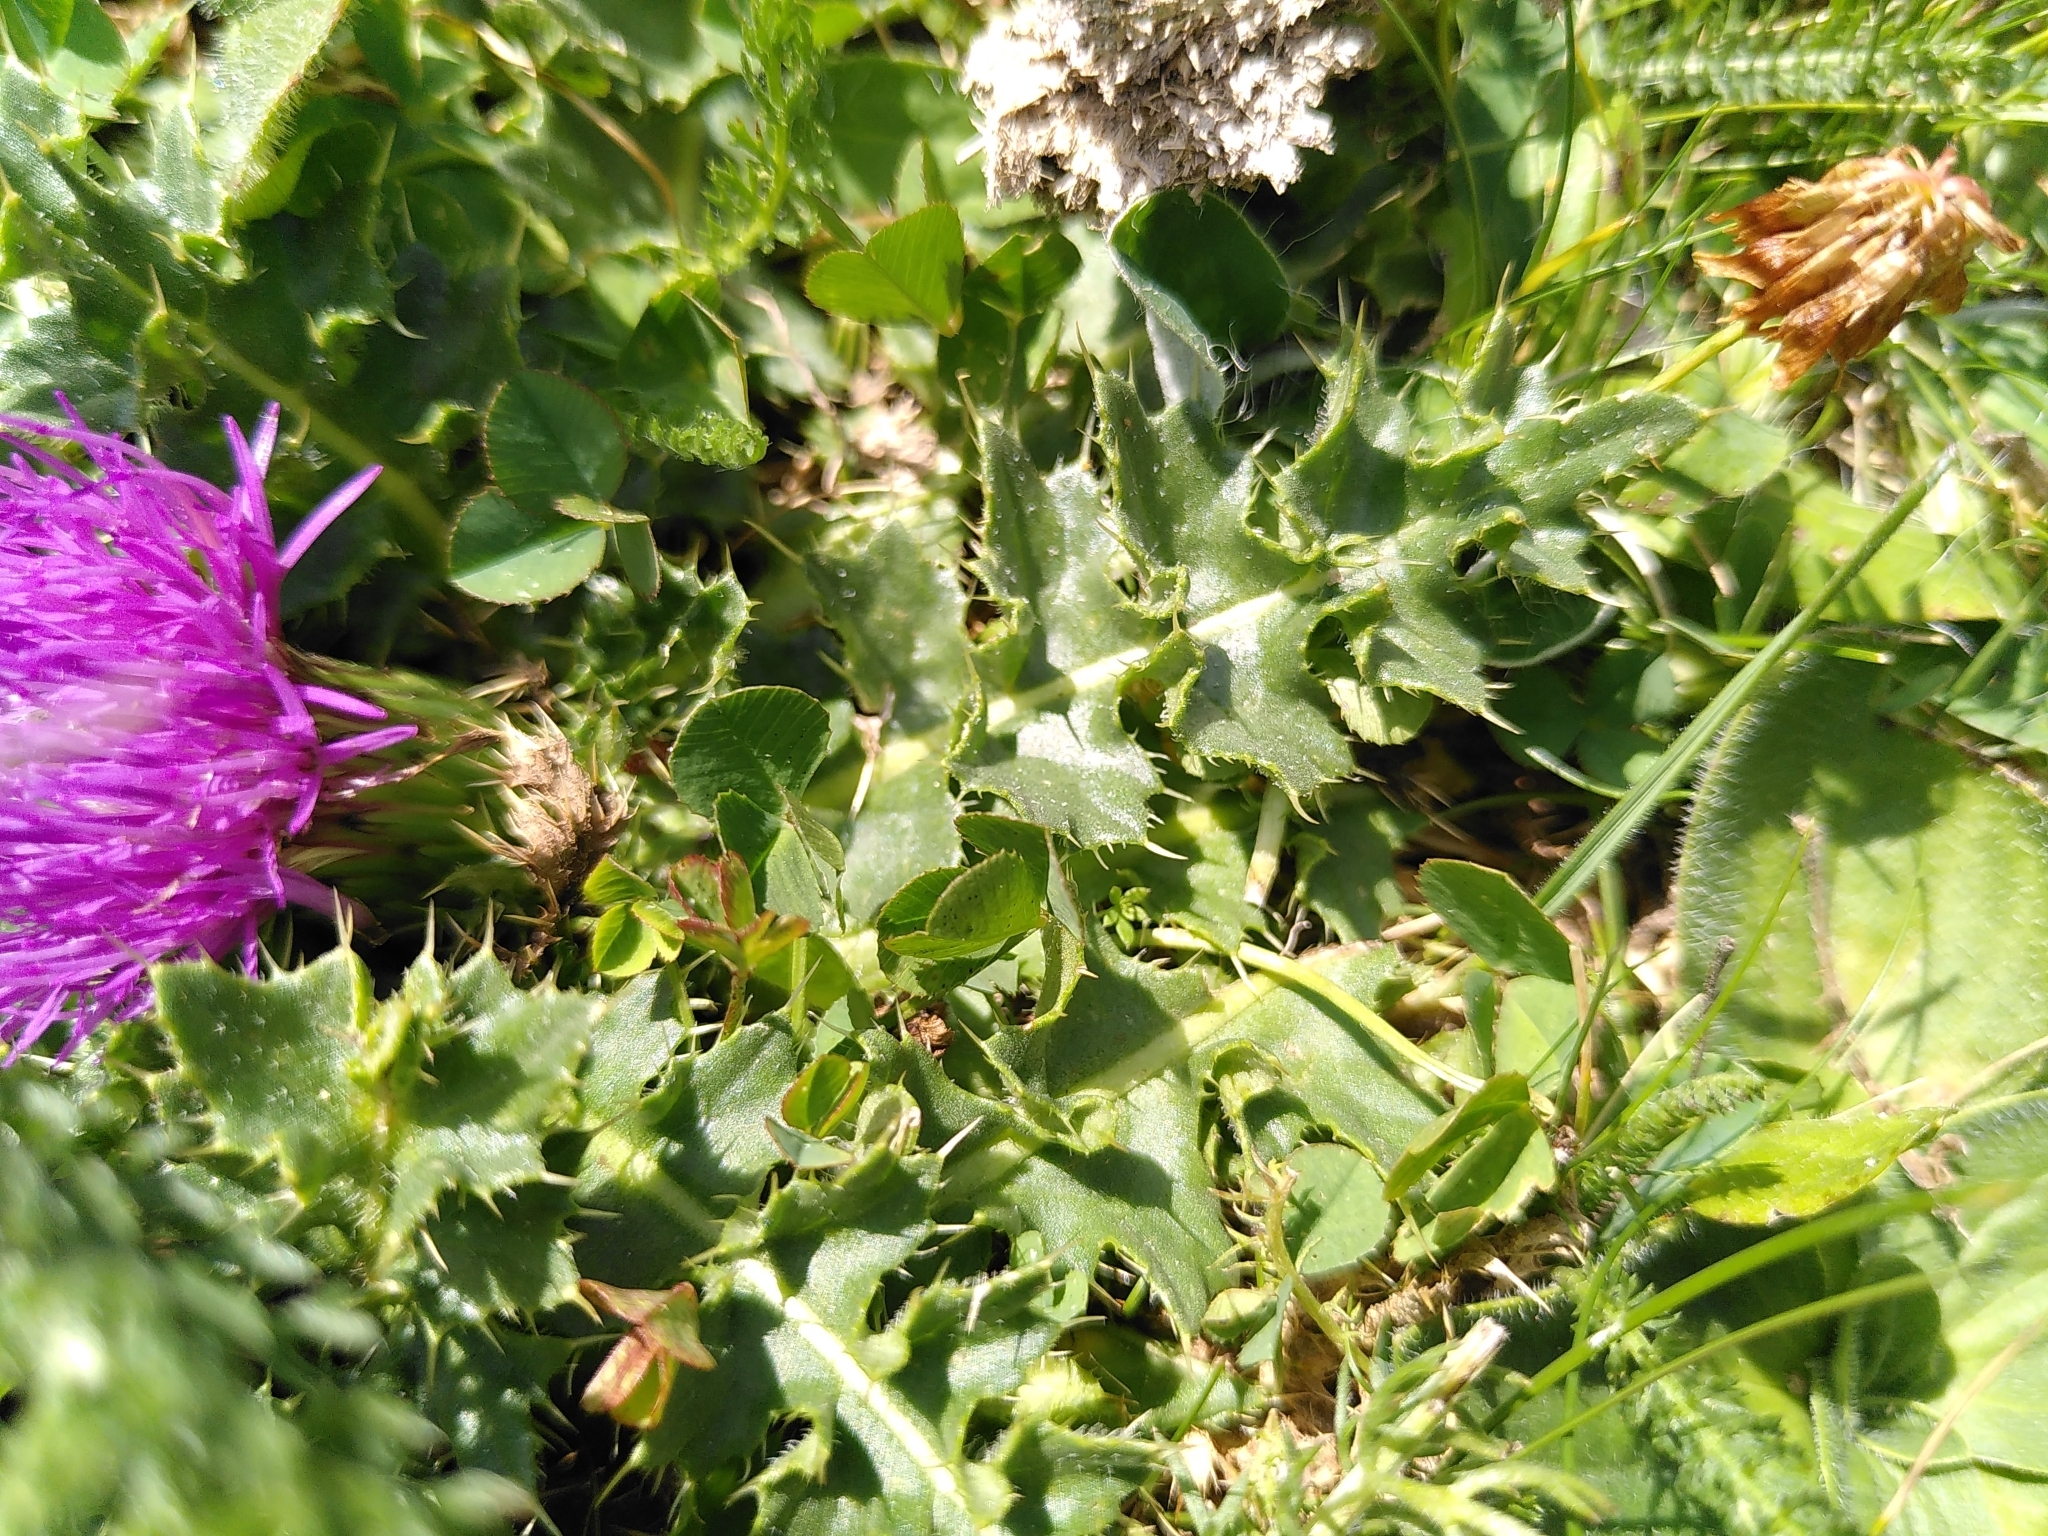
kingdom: Plantae
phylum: Tracheophyta
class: Magnoliopsida
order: Asterales
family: Asteraceae
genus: Cirsium
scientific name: Cirsium acaulon
